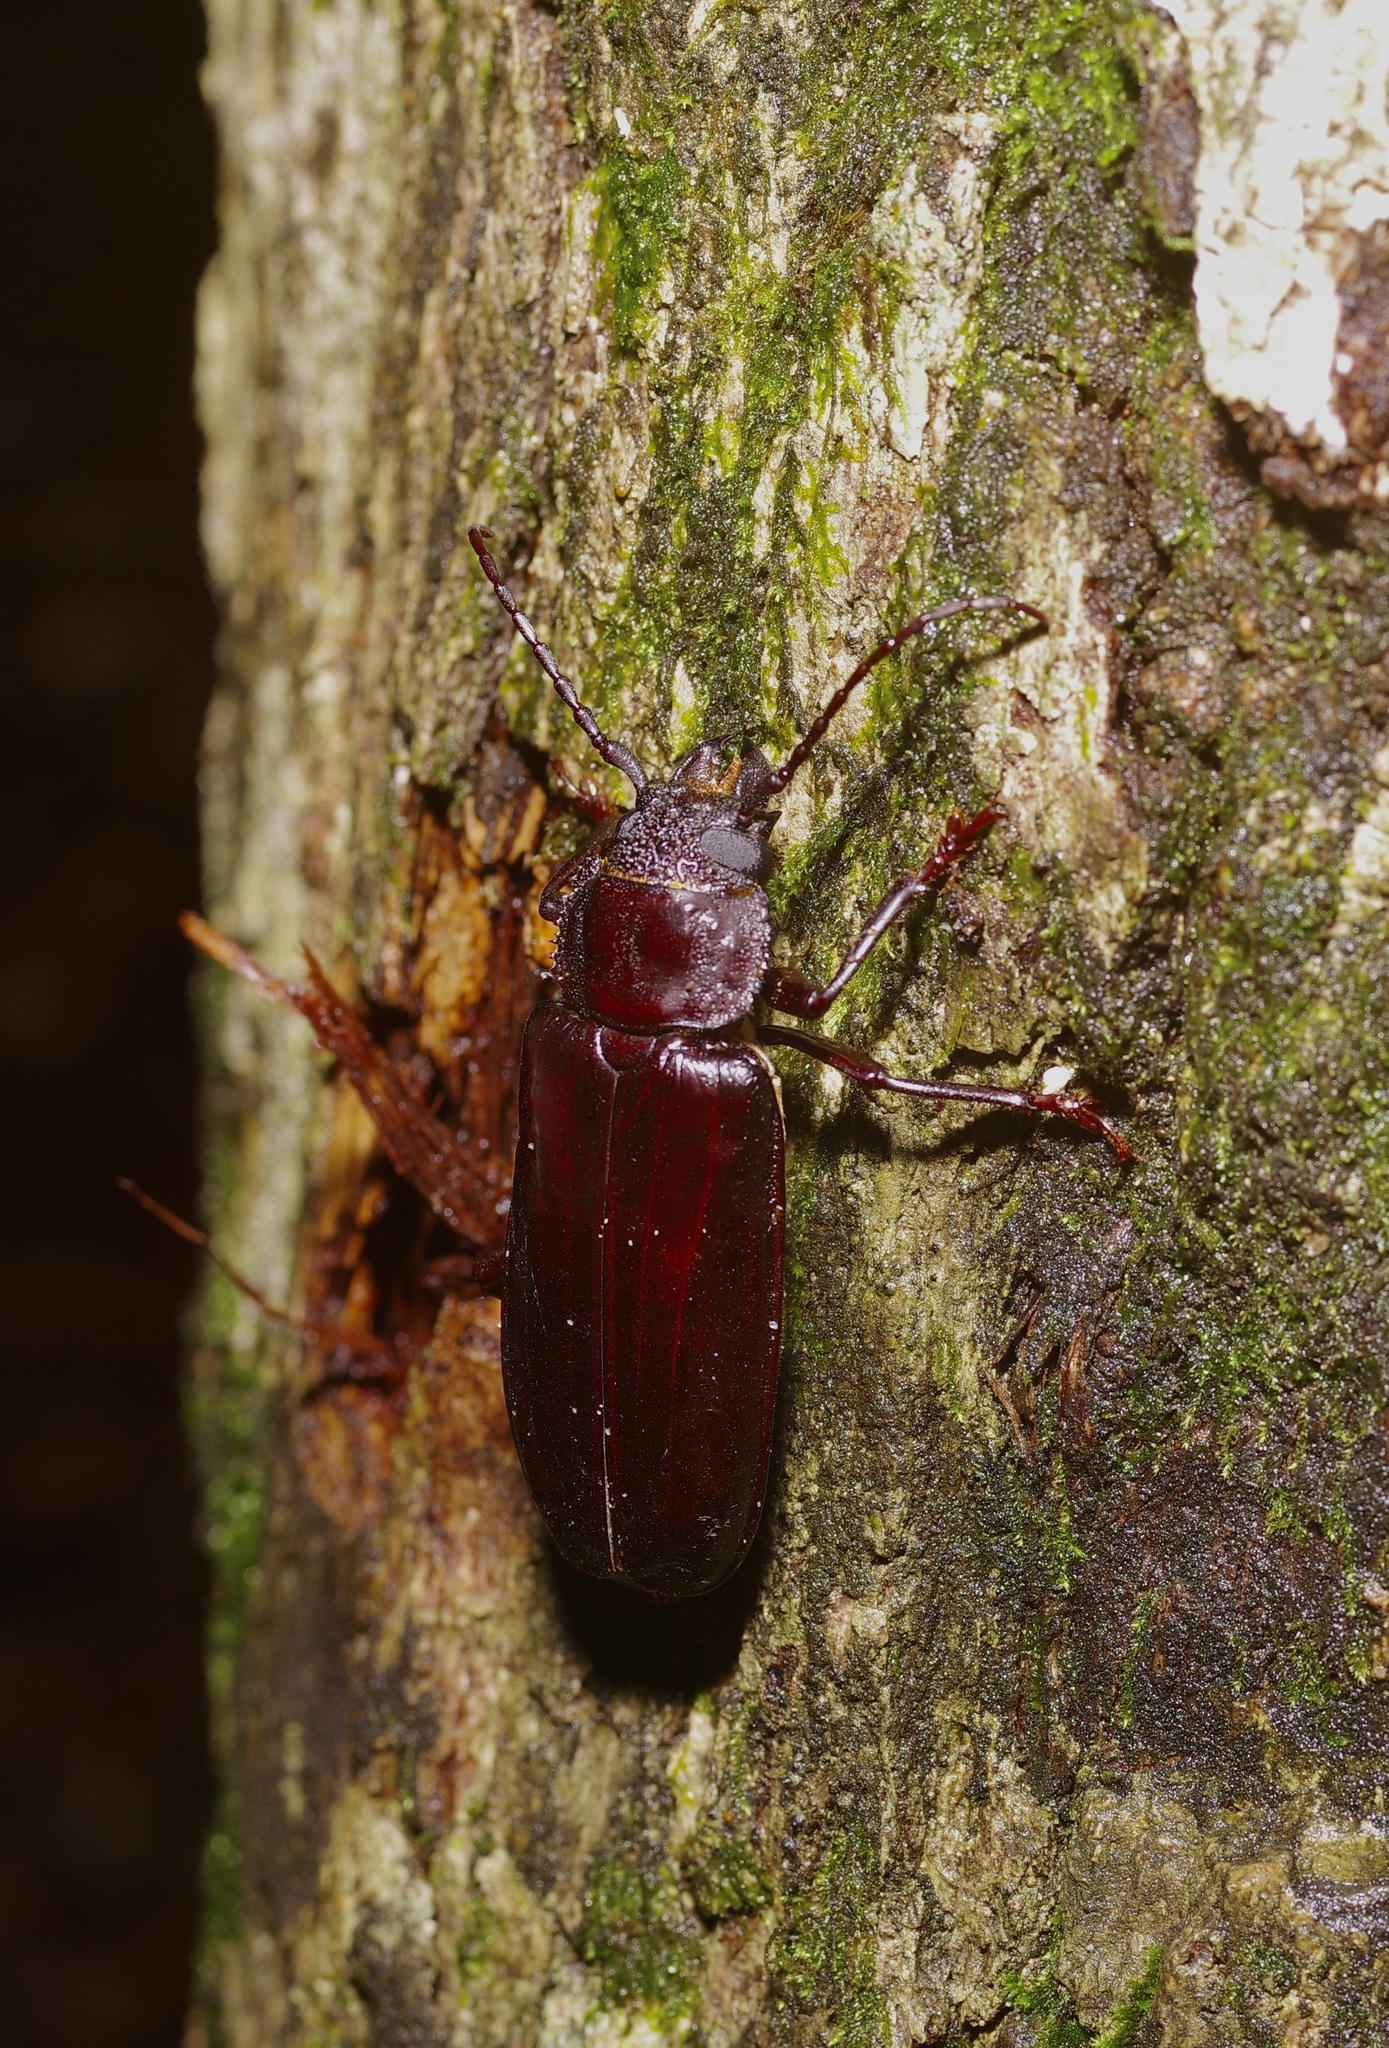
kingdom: Animalia
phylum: Arthropoda
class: Insecta
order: Coleoptera
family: Cerambycidae
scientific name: Cerambycidae
